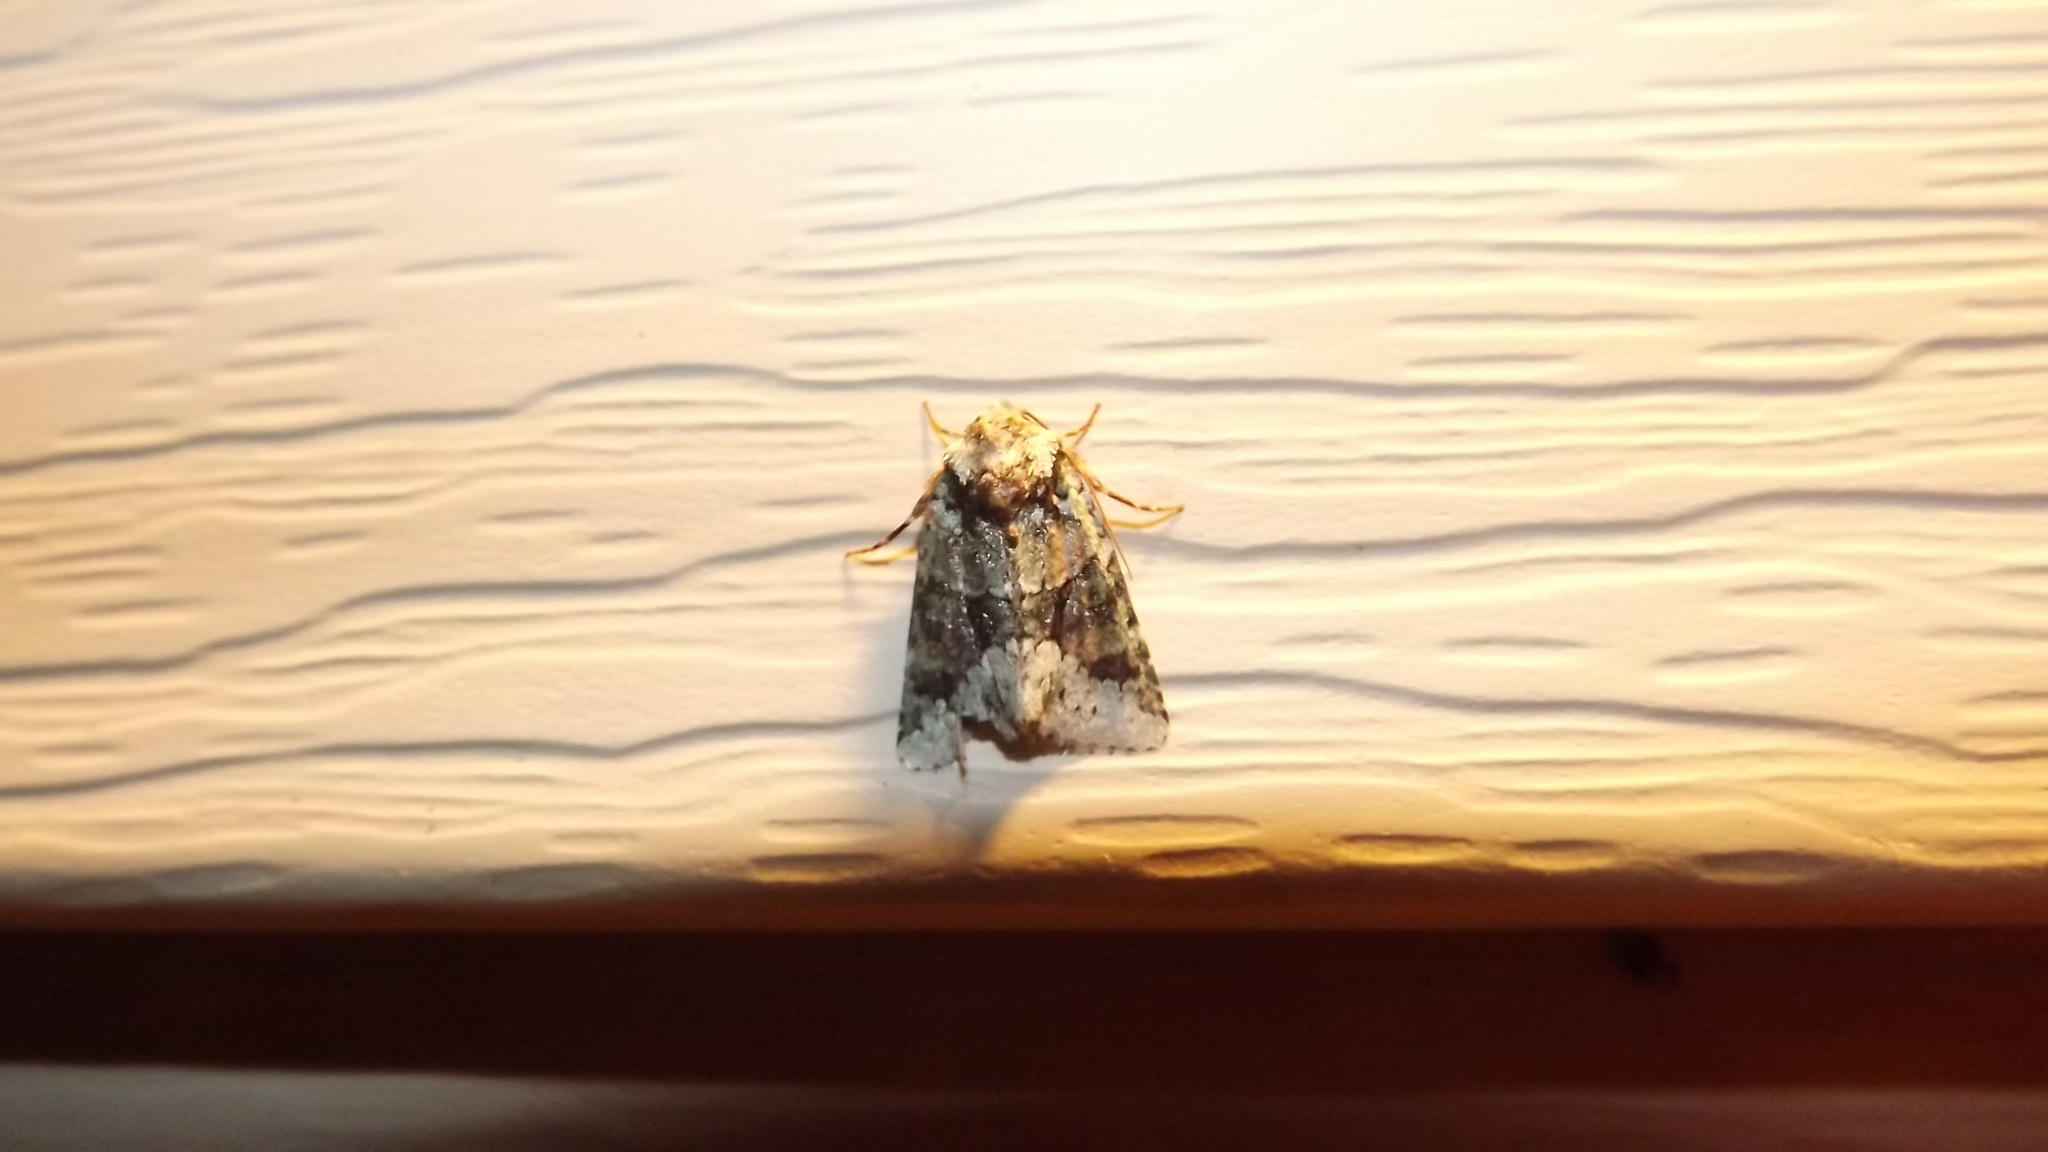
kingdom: Animalia
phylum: Arthropoda
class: Insecta
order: Lepidoptera
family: Noctuidae
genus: Lacinipolia
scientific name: Lacinipolia explicata
